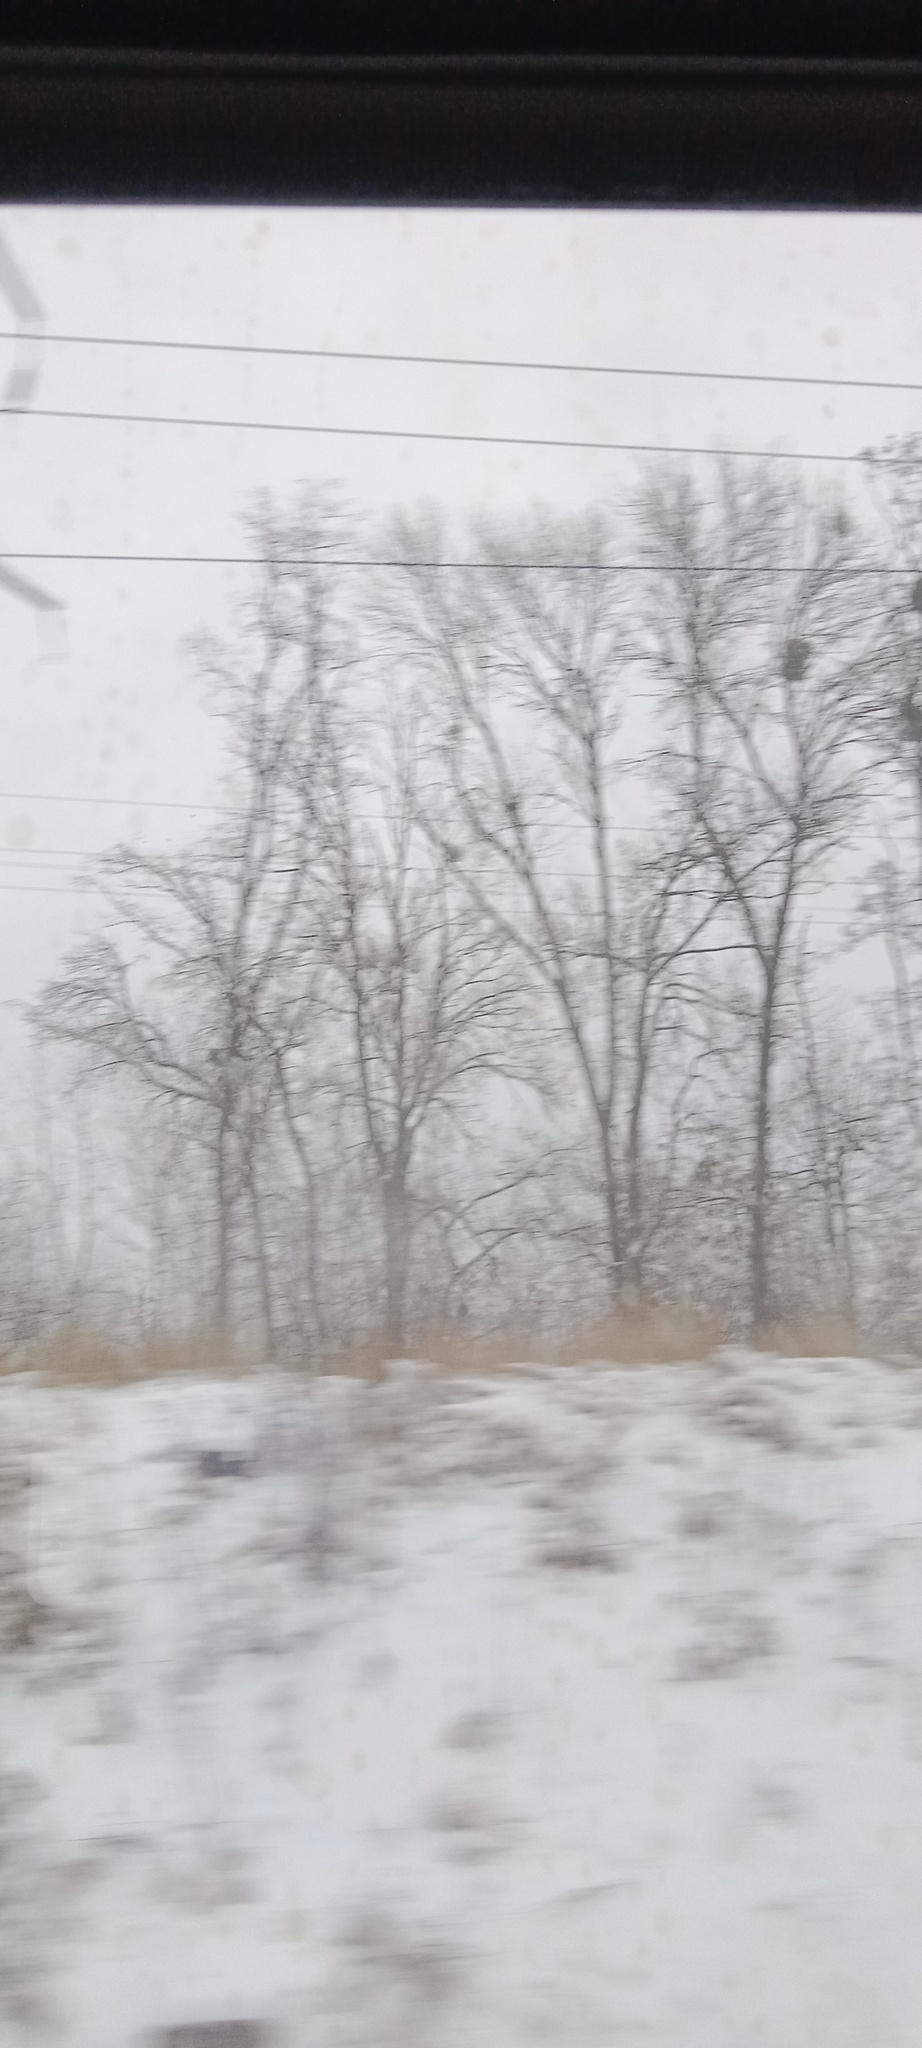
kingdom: Plantae
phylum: Tracheophyta
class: Magnoliopsida
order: Santalales
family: Viscaceae
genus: Viscum
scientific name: Viscum album
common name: Mistletoe
